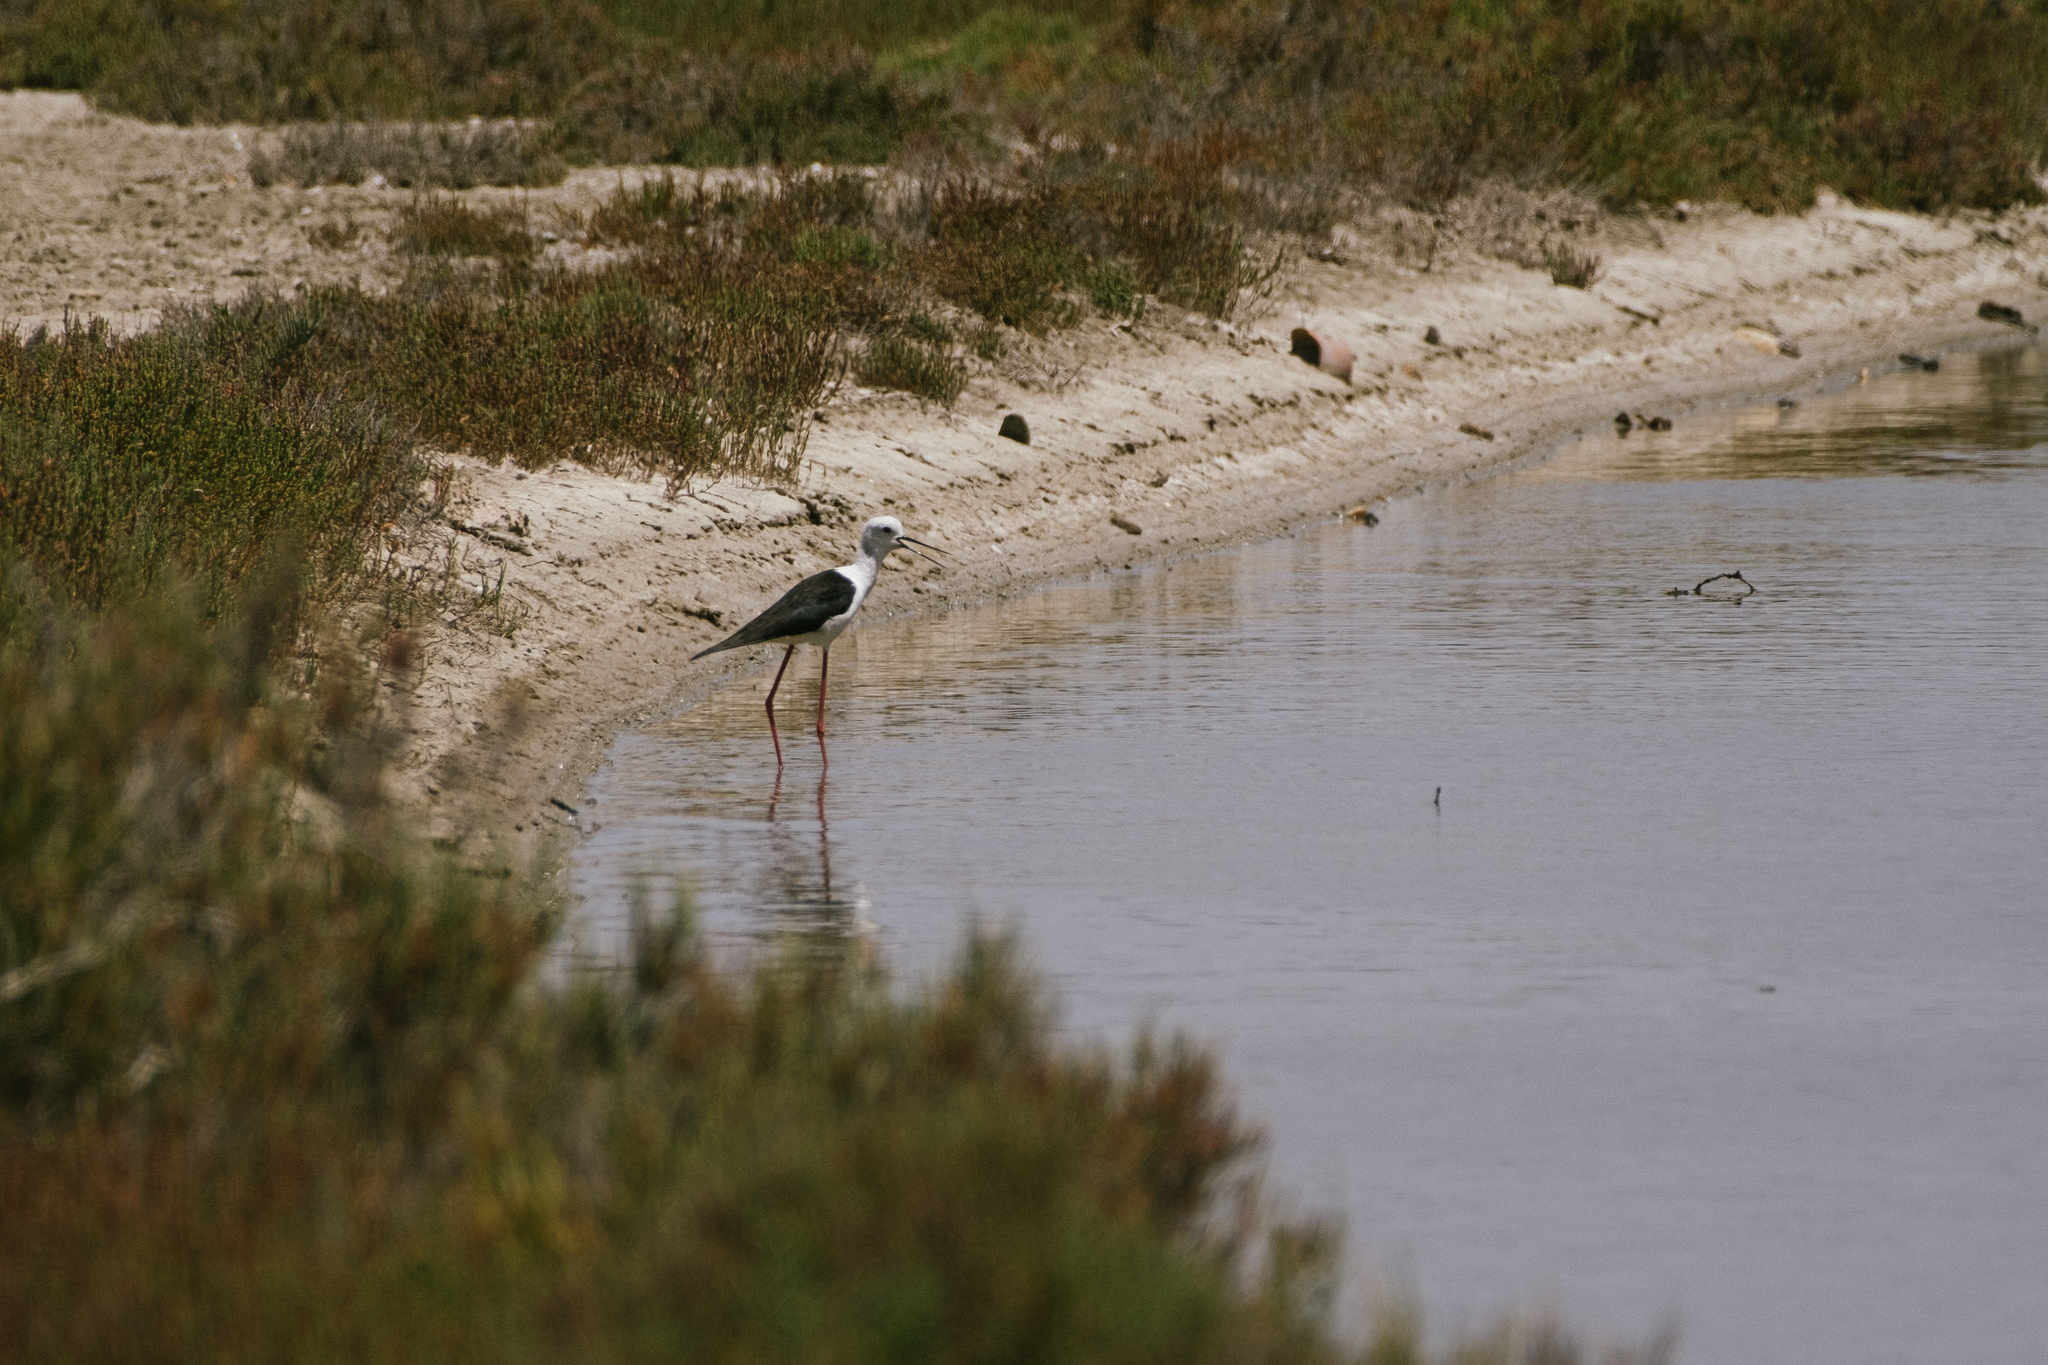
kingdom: Animalia
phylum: Chordata
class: Aves
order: Charadriiformes
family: Recurvirostridae
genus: Himantopus
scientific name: Himantopus himantopus
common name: Black-winged stilt
